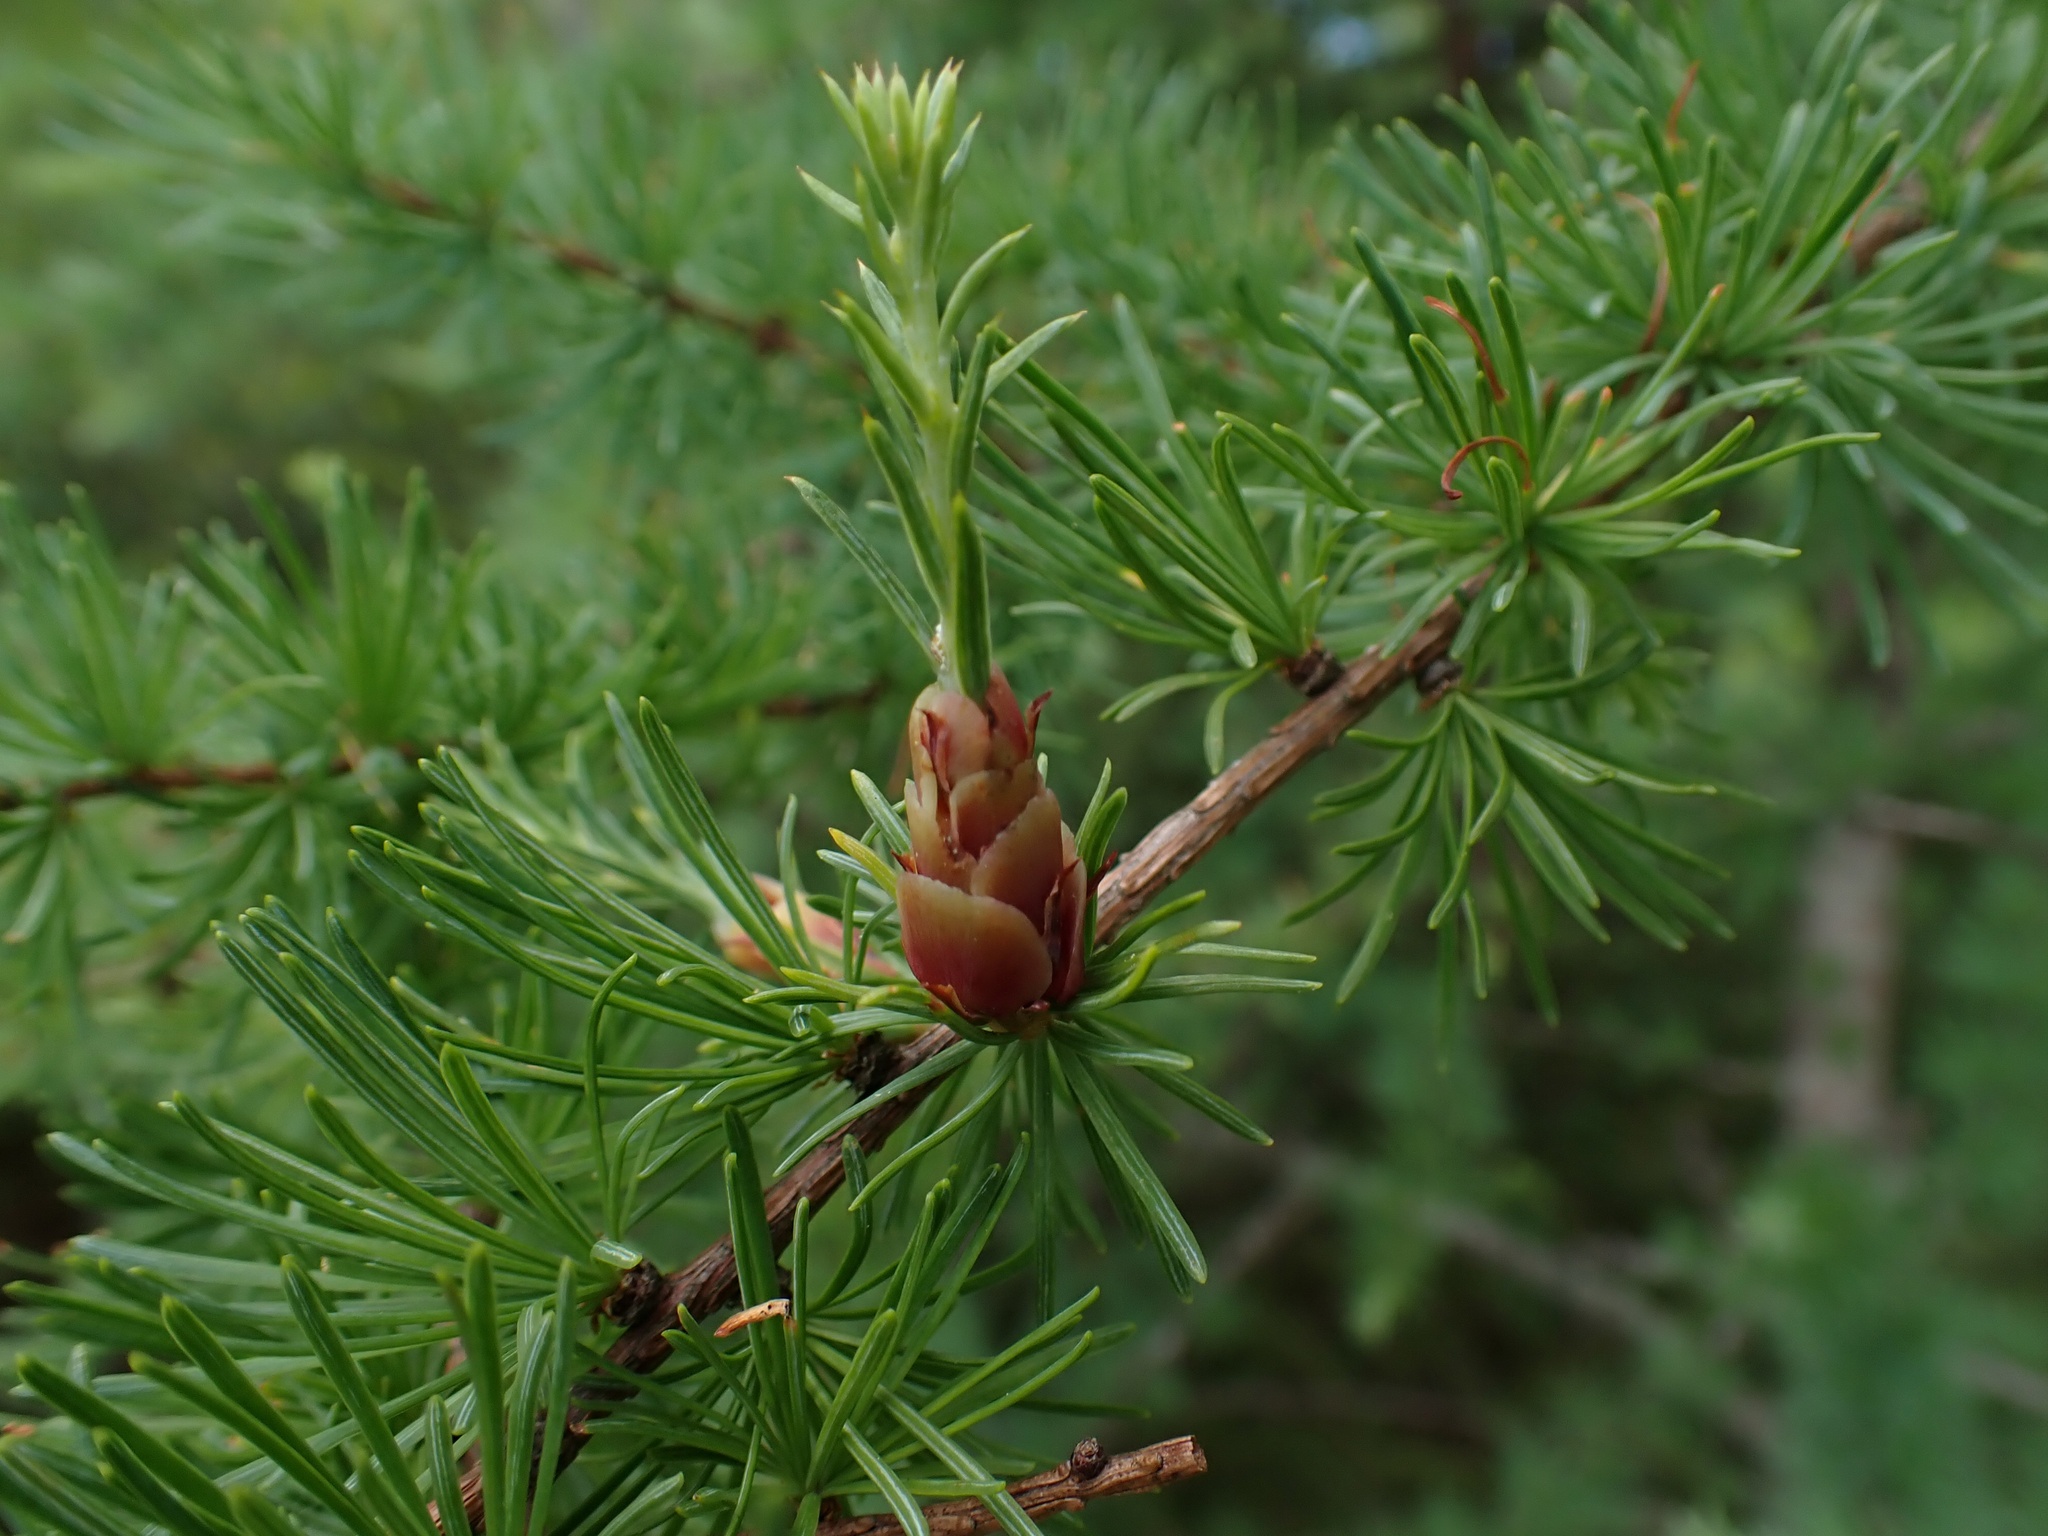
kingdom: Plantae
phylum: Tracheophyta
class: Pinopsida
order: Pinales
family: Pinaceae
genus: Larix
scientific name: Larix laricina
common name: American larch
